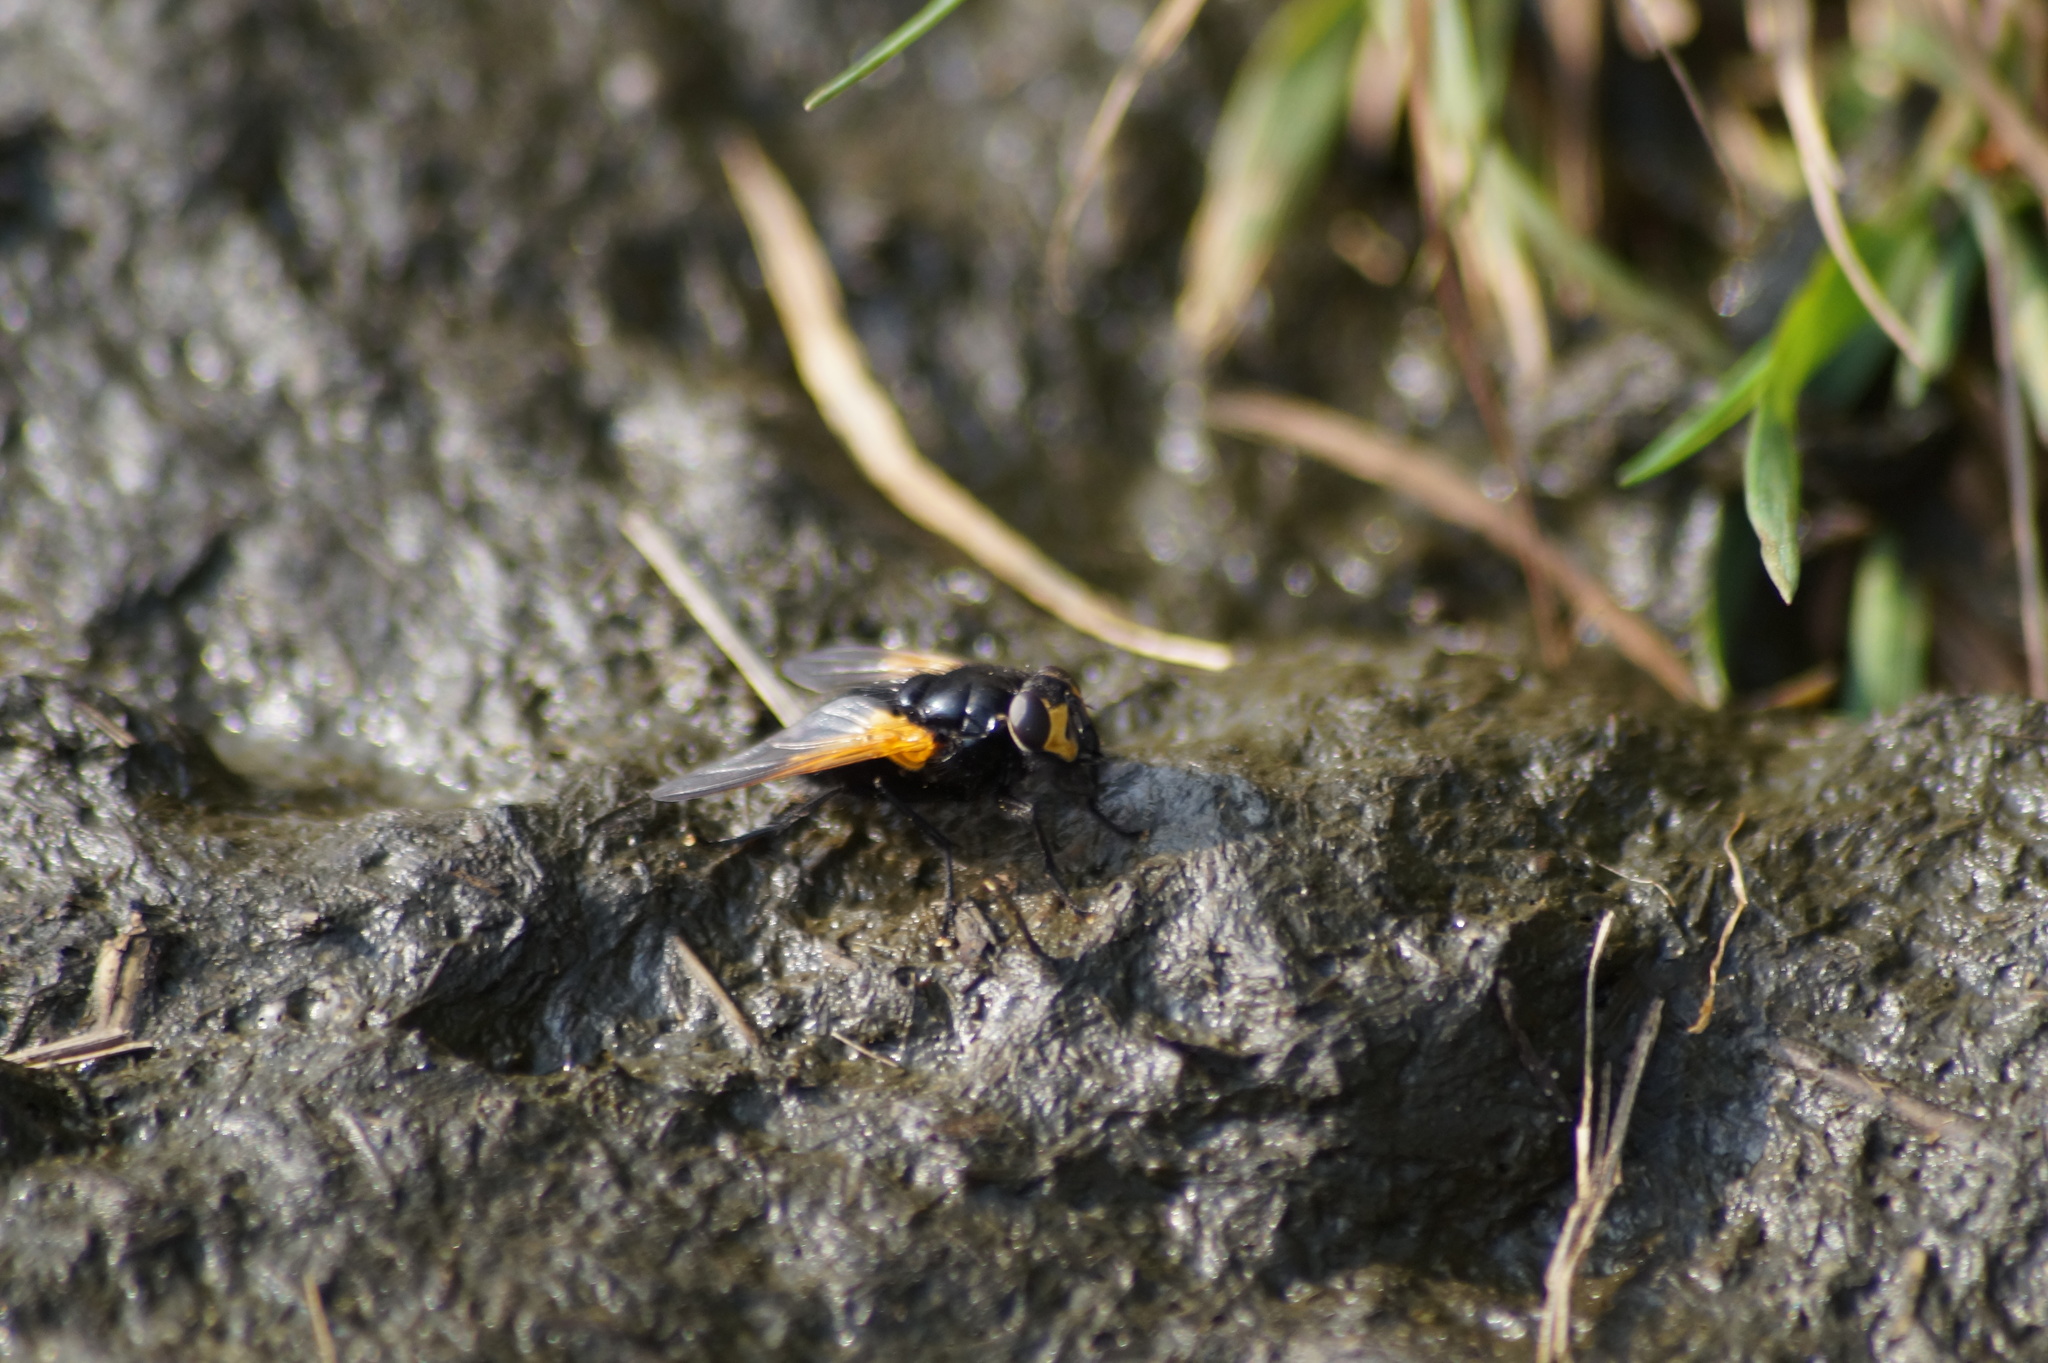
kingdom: Animalia
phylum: Arthropoda
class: Insecta
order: Diptera
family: Muscidae
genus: Mesembrina
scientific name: Mesembrina meridiana
